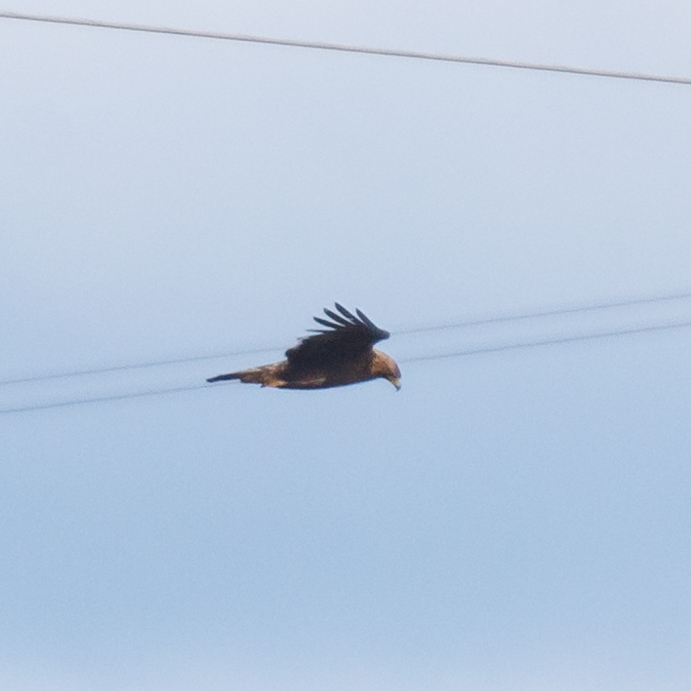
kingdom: Animalia
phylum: Chordata
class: Aves
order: Accipitriformes
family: Accipitridae
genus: Aquila
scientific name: Aquila chrysaetos
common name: Golden eagle
